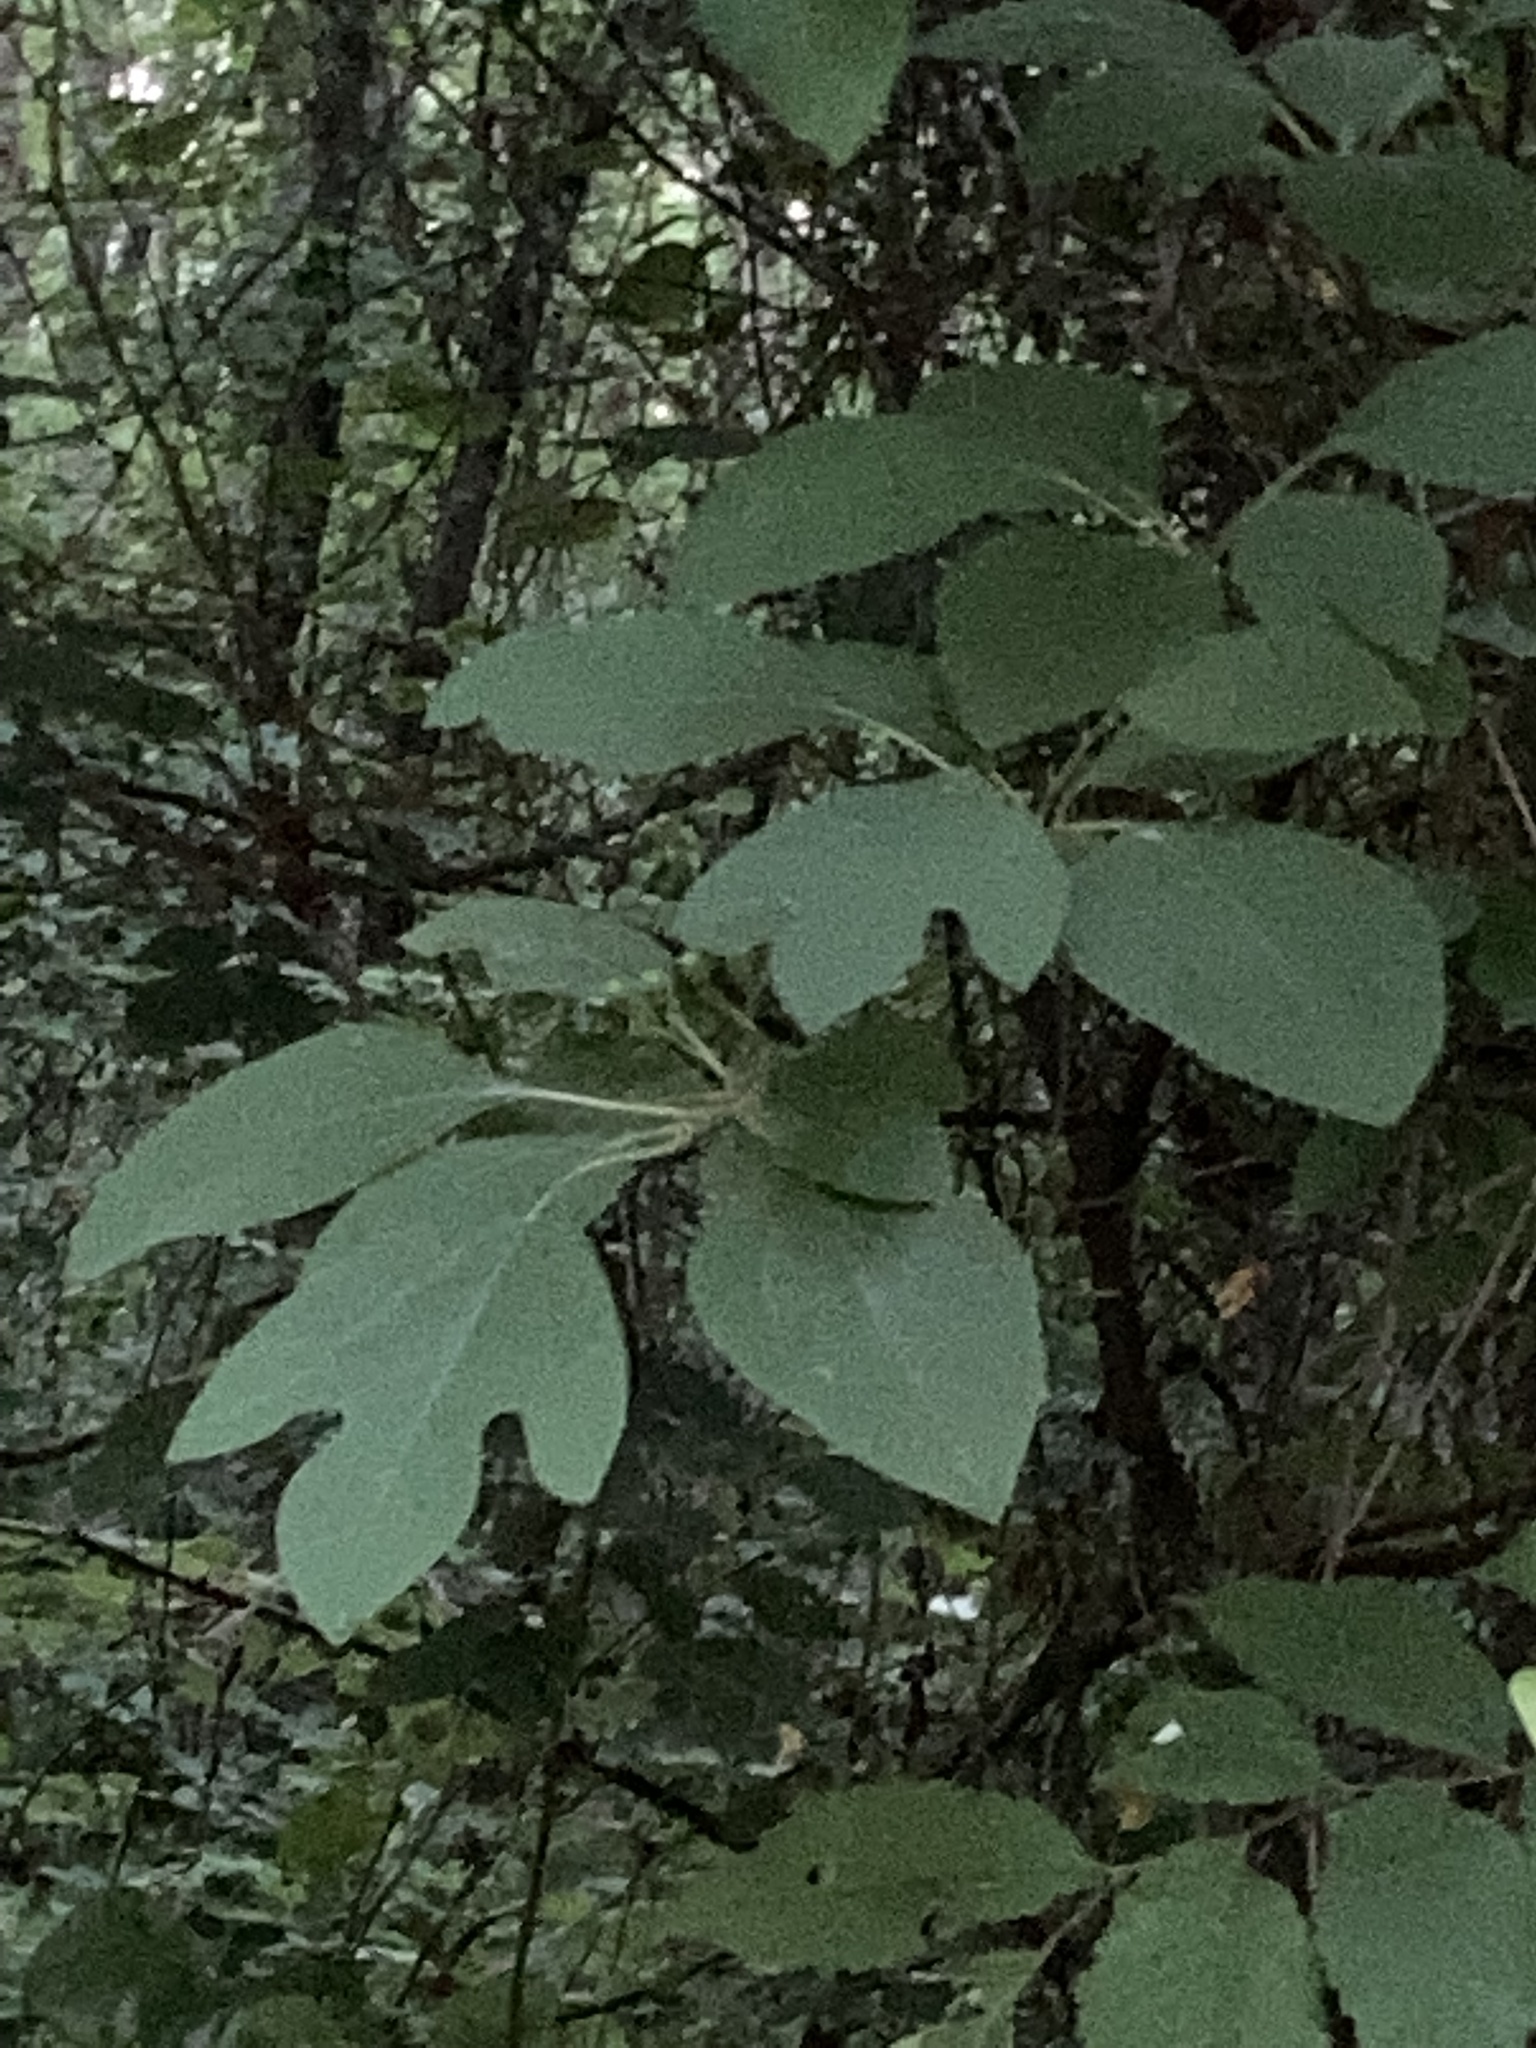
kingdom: Plantae
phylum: Tracheophyta
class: Magnoliopsida
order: Laurales
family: Lauraceae
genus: Sassafras
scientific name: Sassafras albidum
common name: Sassafras
